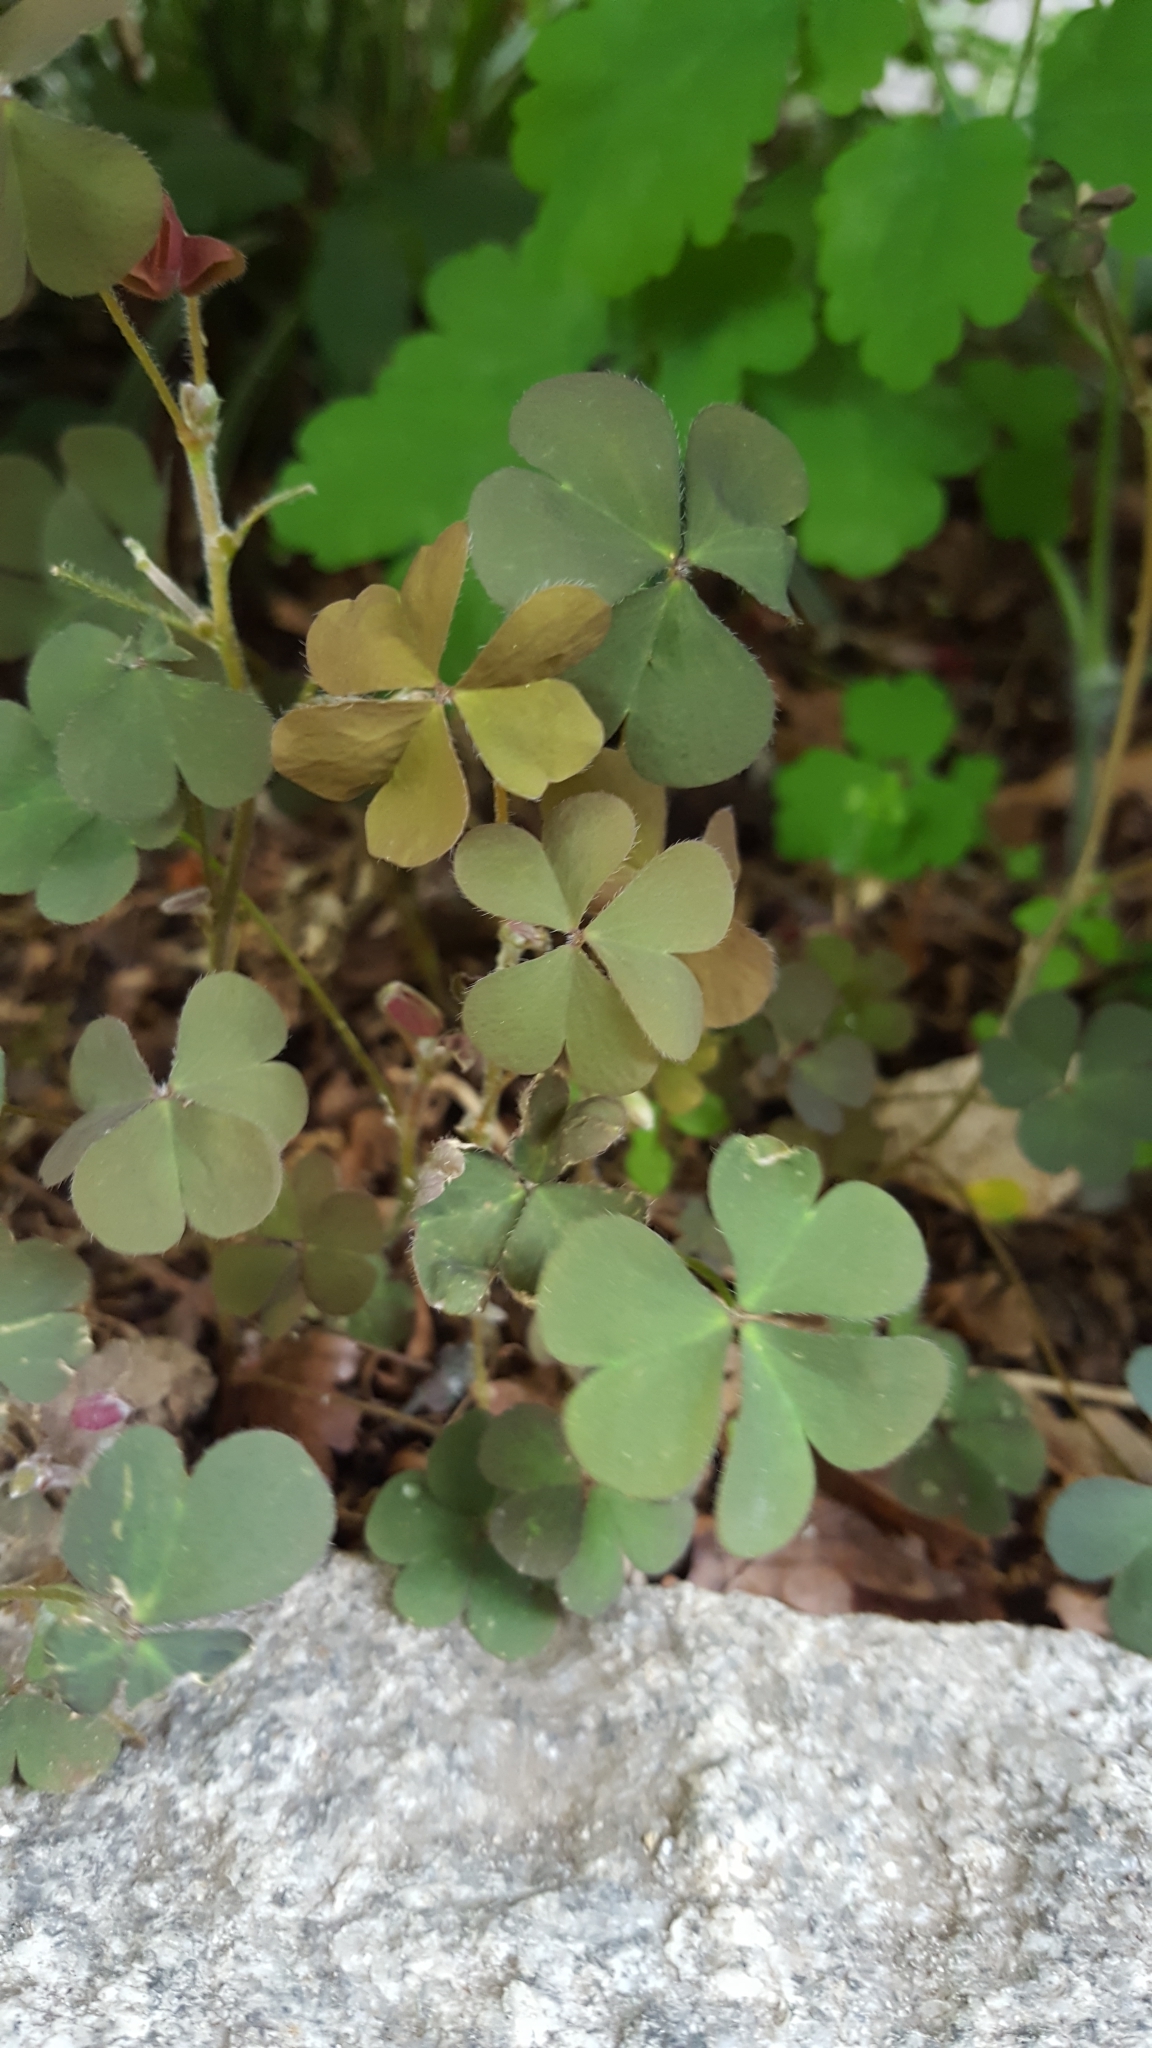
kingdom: Plantae
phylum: Tracheophyta
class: Magnoliopsida
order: Oxalidales
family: Oxalidaceae
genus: Oxalis
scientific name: Oxalis corniculata
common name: Procumbent yellow-sorrel
